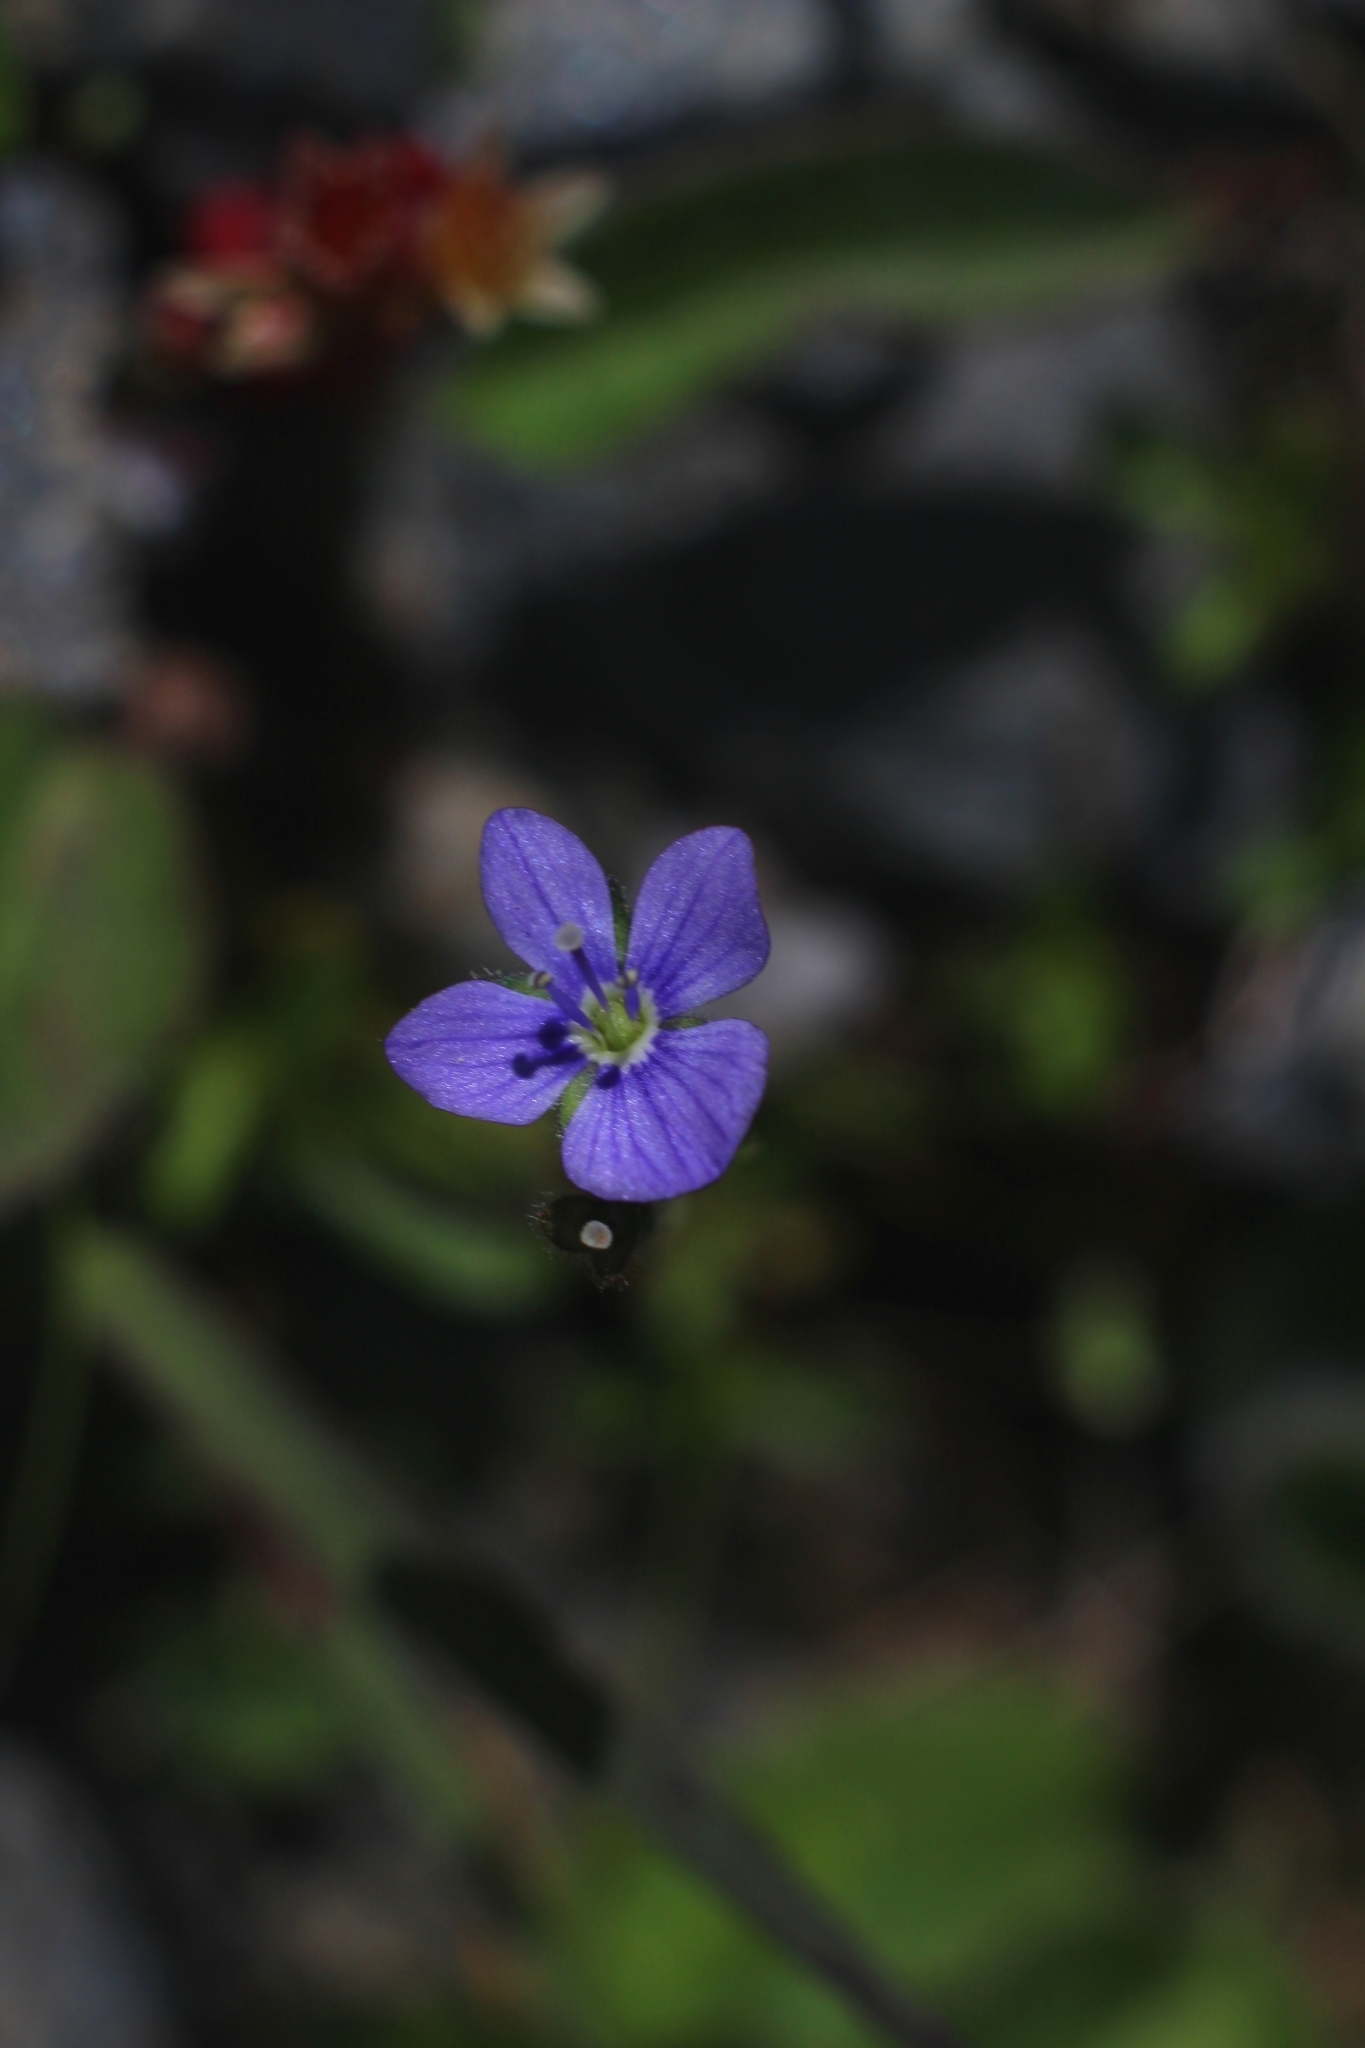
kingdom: Plantae
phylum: Tracheophyta
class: Magnoliopsida
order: Lamiales
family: Plantaginaceae
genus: Veronica
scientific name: Veronica aphylla
